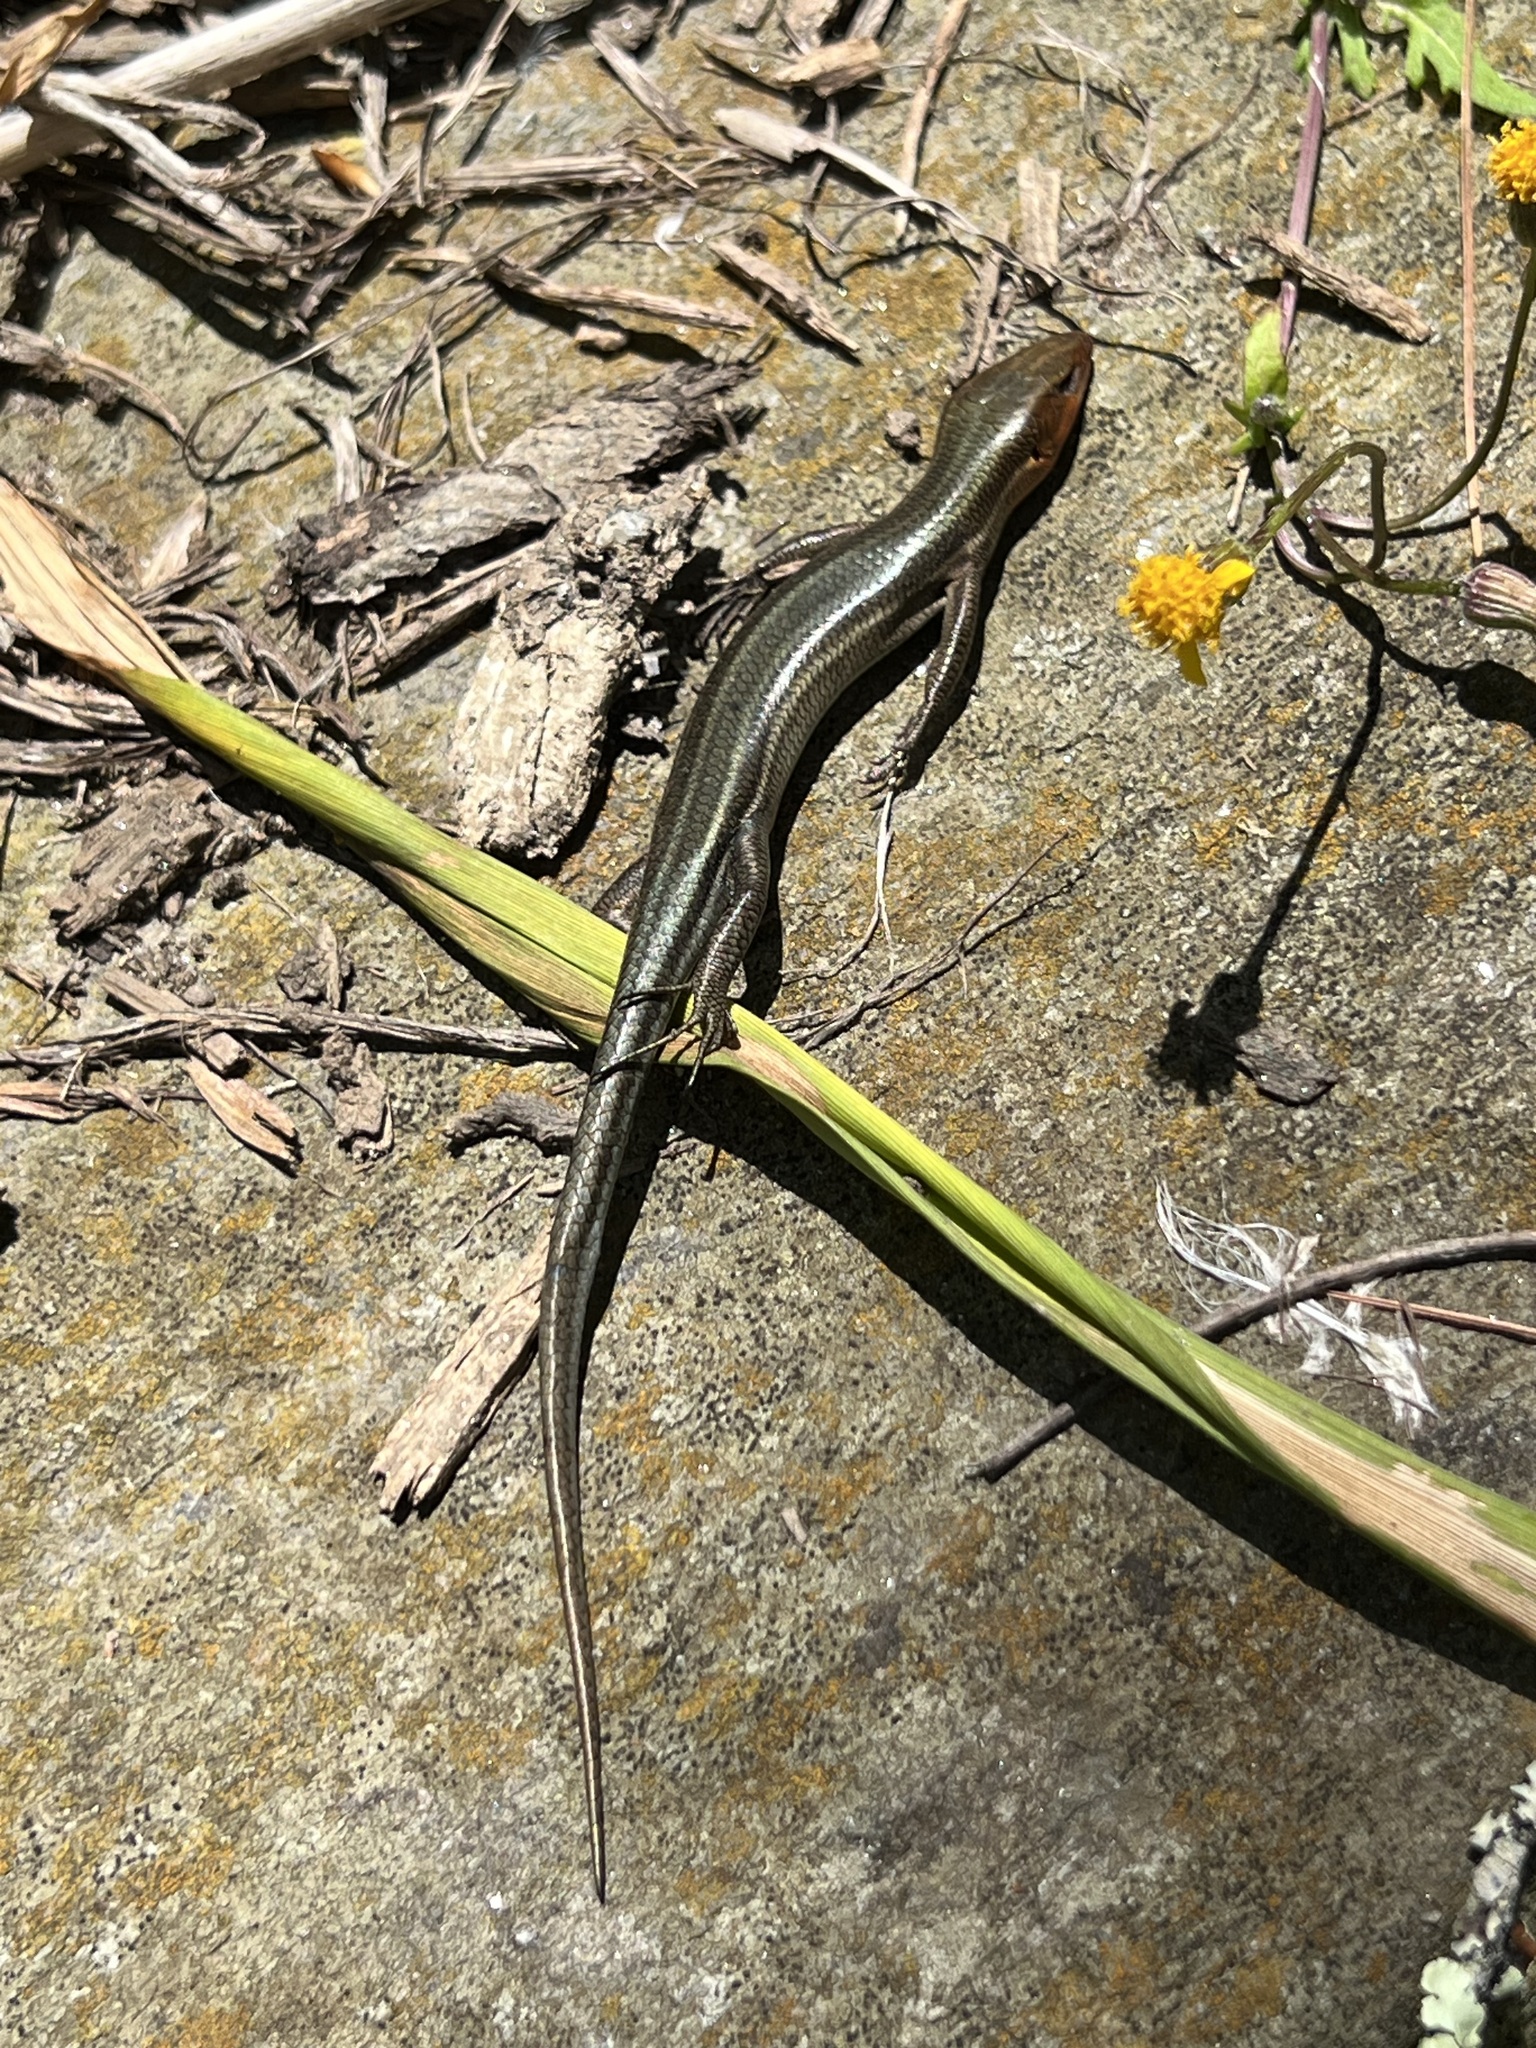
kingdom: Animalia
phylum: Chordata
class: Squamata
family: Scincidae
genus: Plestiodon
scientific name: Plestiodon fasciatus
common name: Five-lined skink
